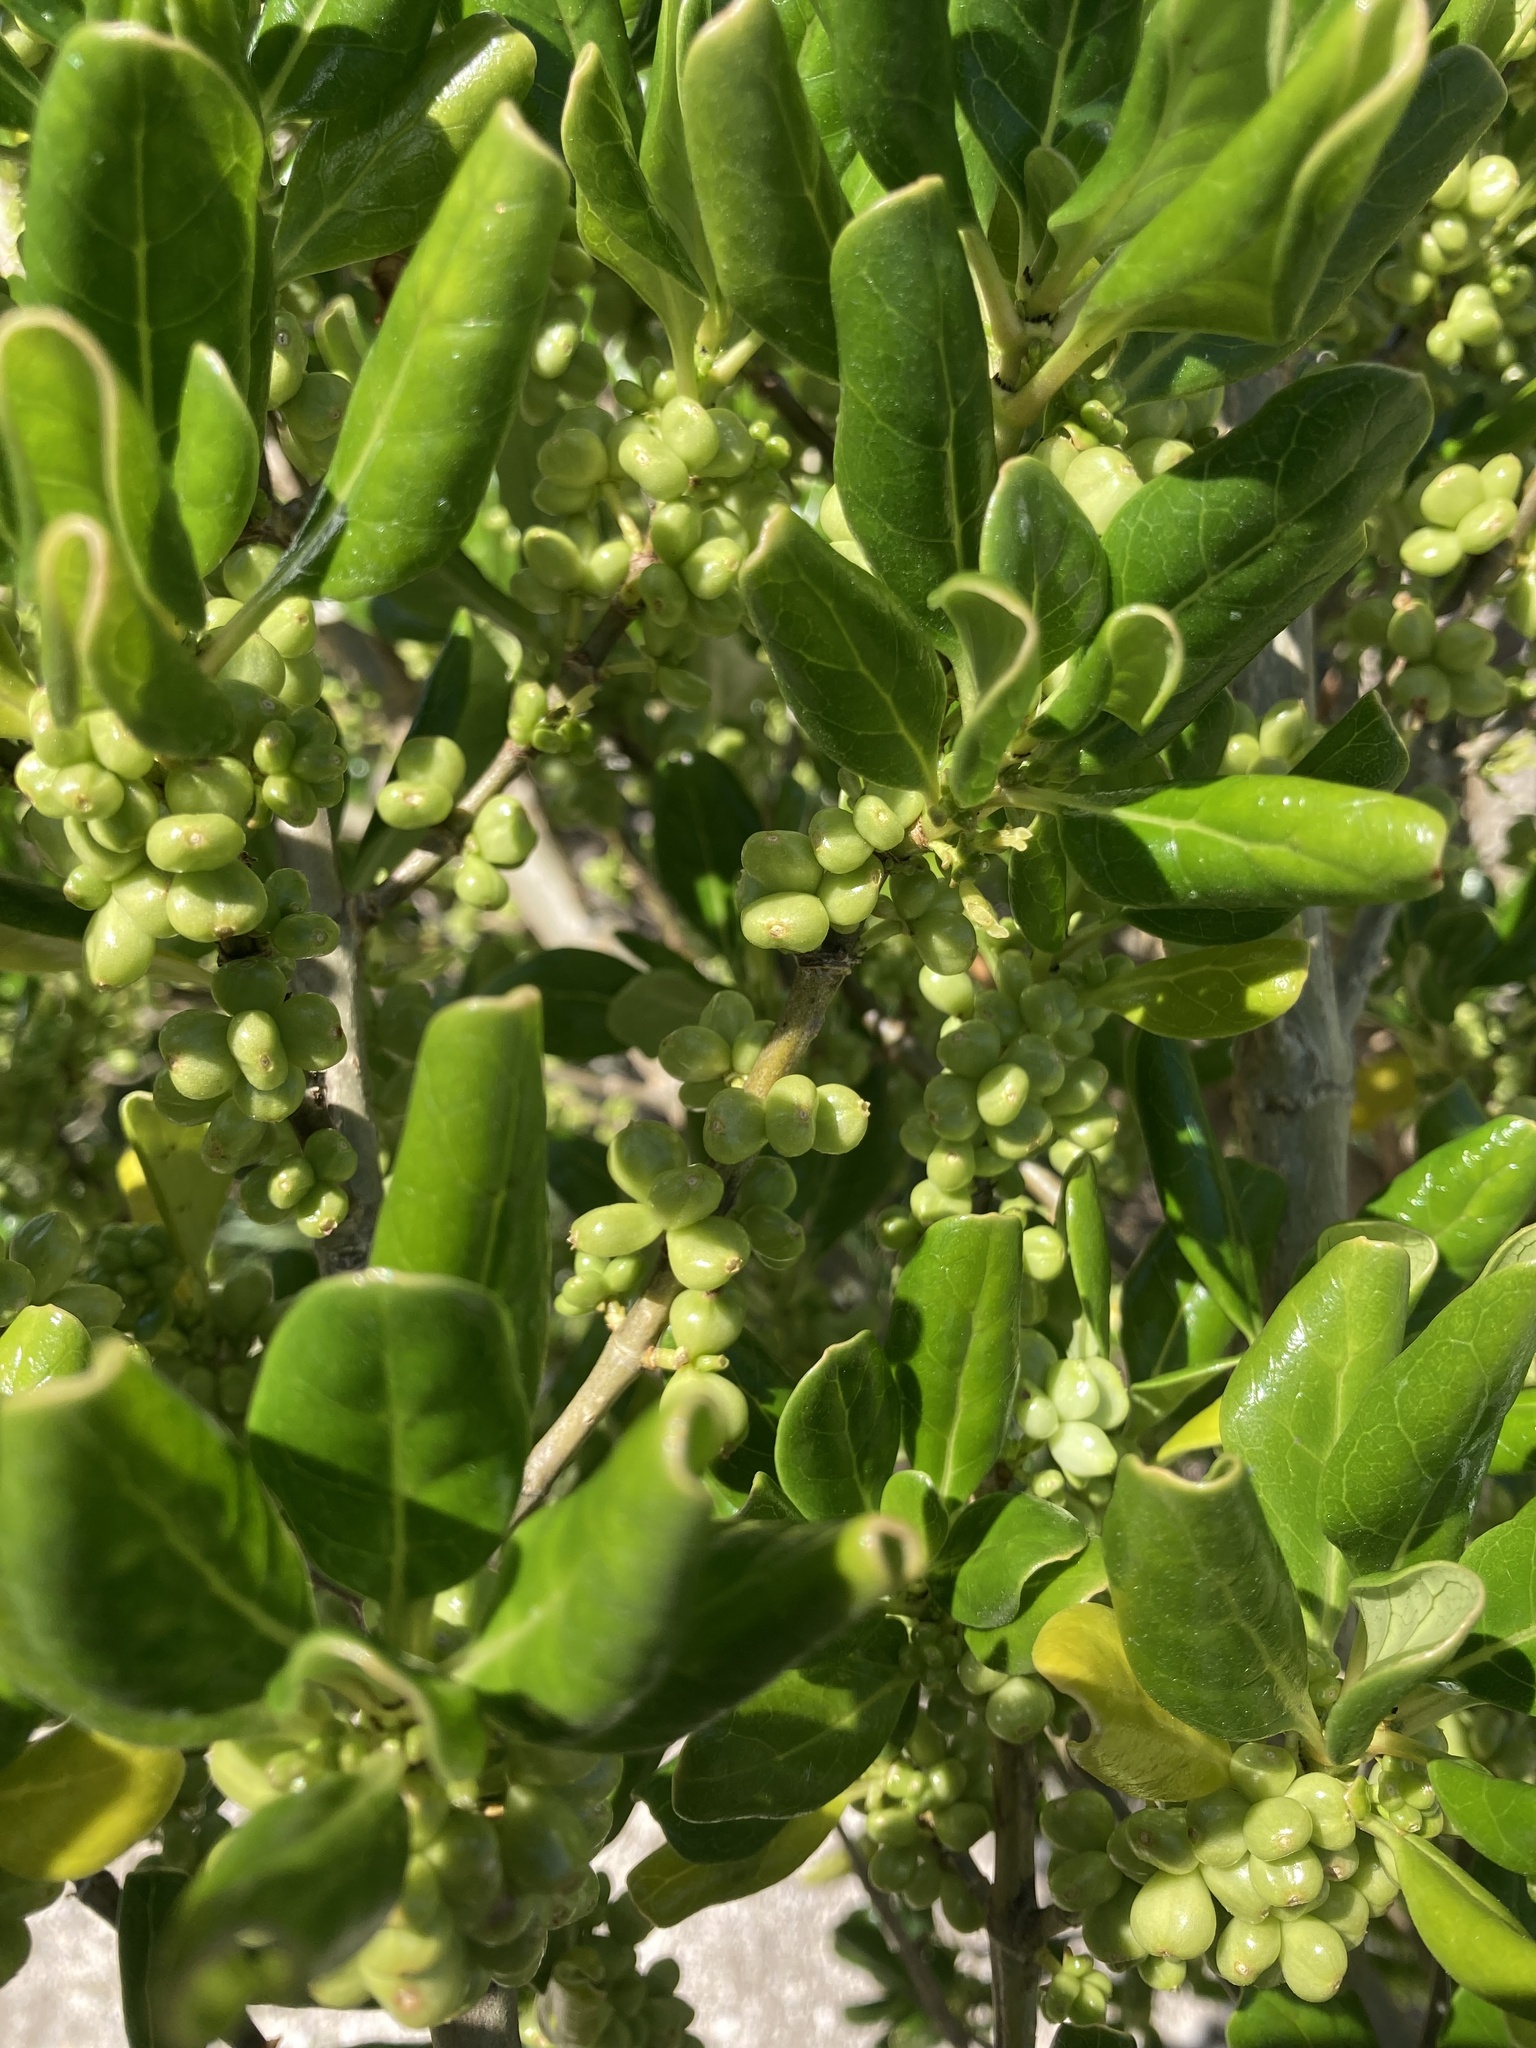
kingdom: Plantae
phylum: Tracheophyta
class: Magnoliopsida
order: Gentianales
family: Rubiaceae
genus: Coprosma
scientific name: Coprosma repens
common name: Tree bedstraw
